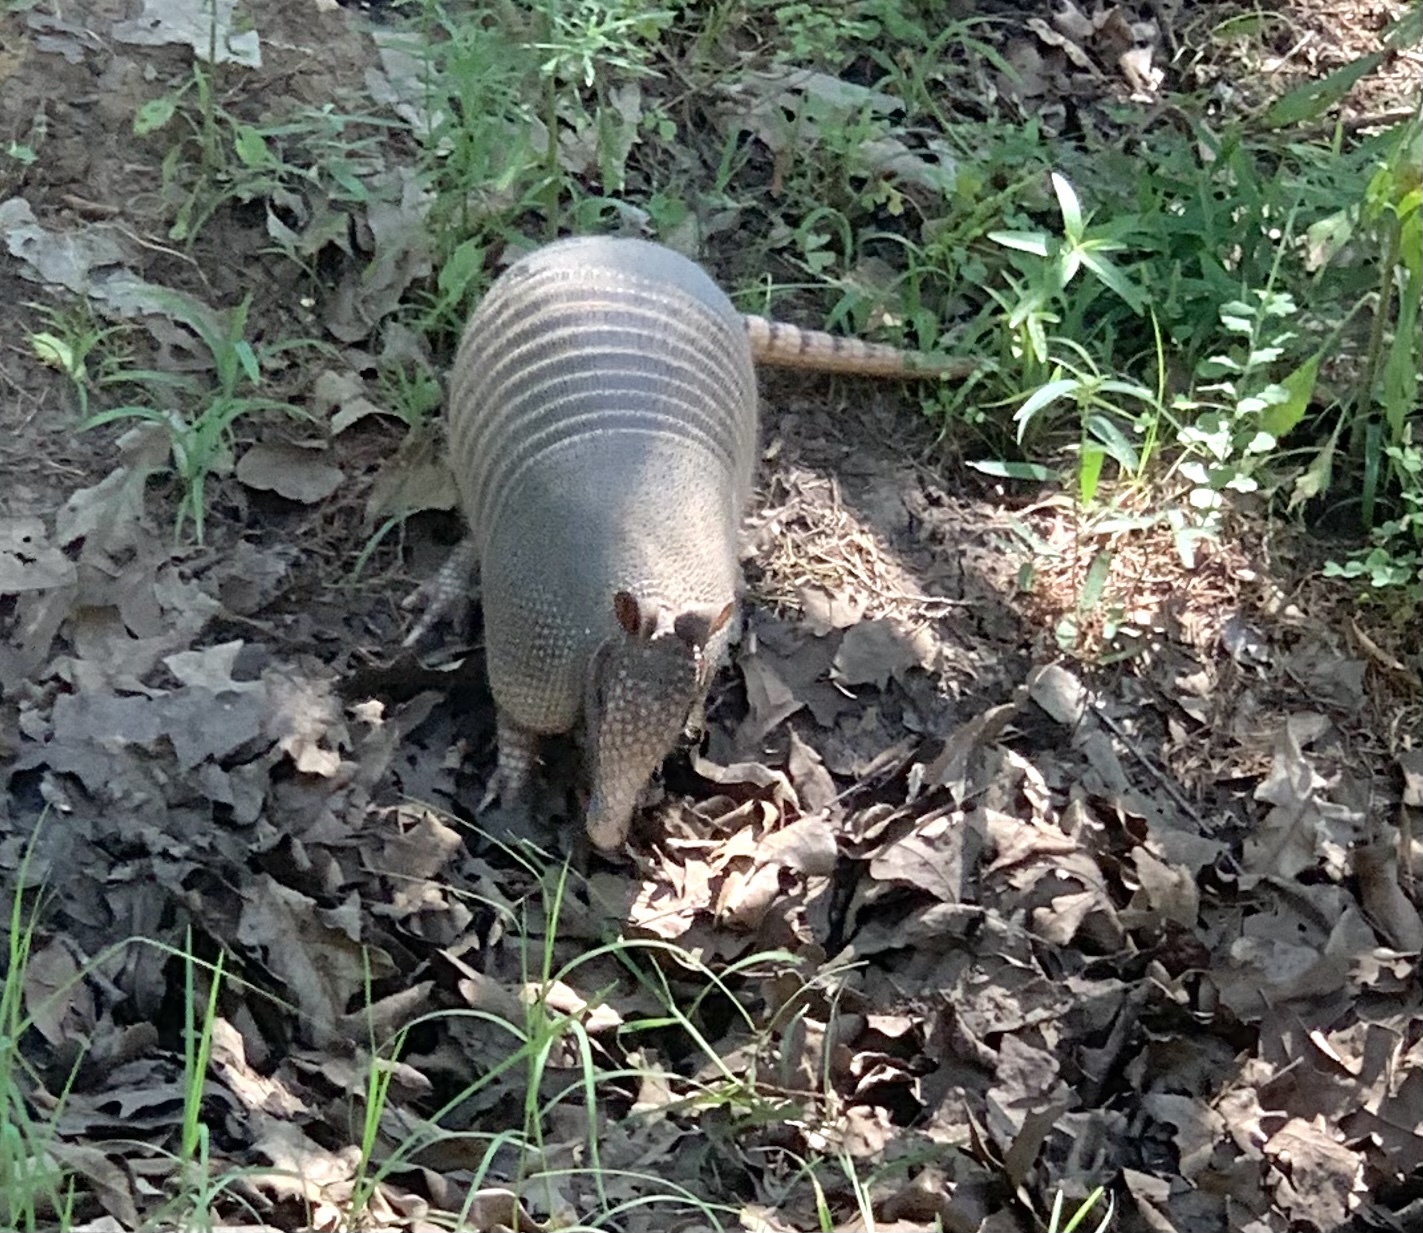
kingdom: Animalia
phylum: Chordata
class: Mammalia
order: Cingulata
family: Dasypodidae
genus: Dasypus
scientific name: Dasypus novemcinctus
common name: Nine-banded armadillo
